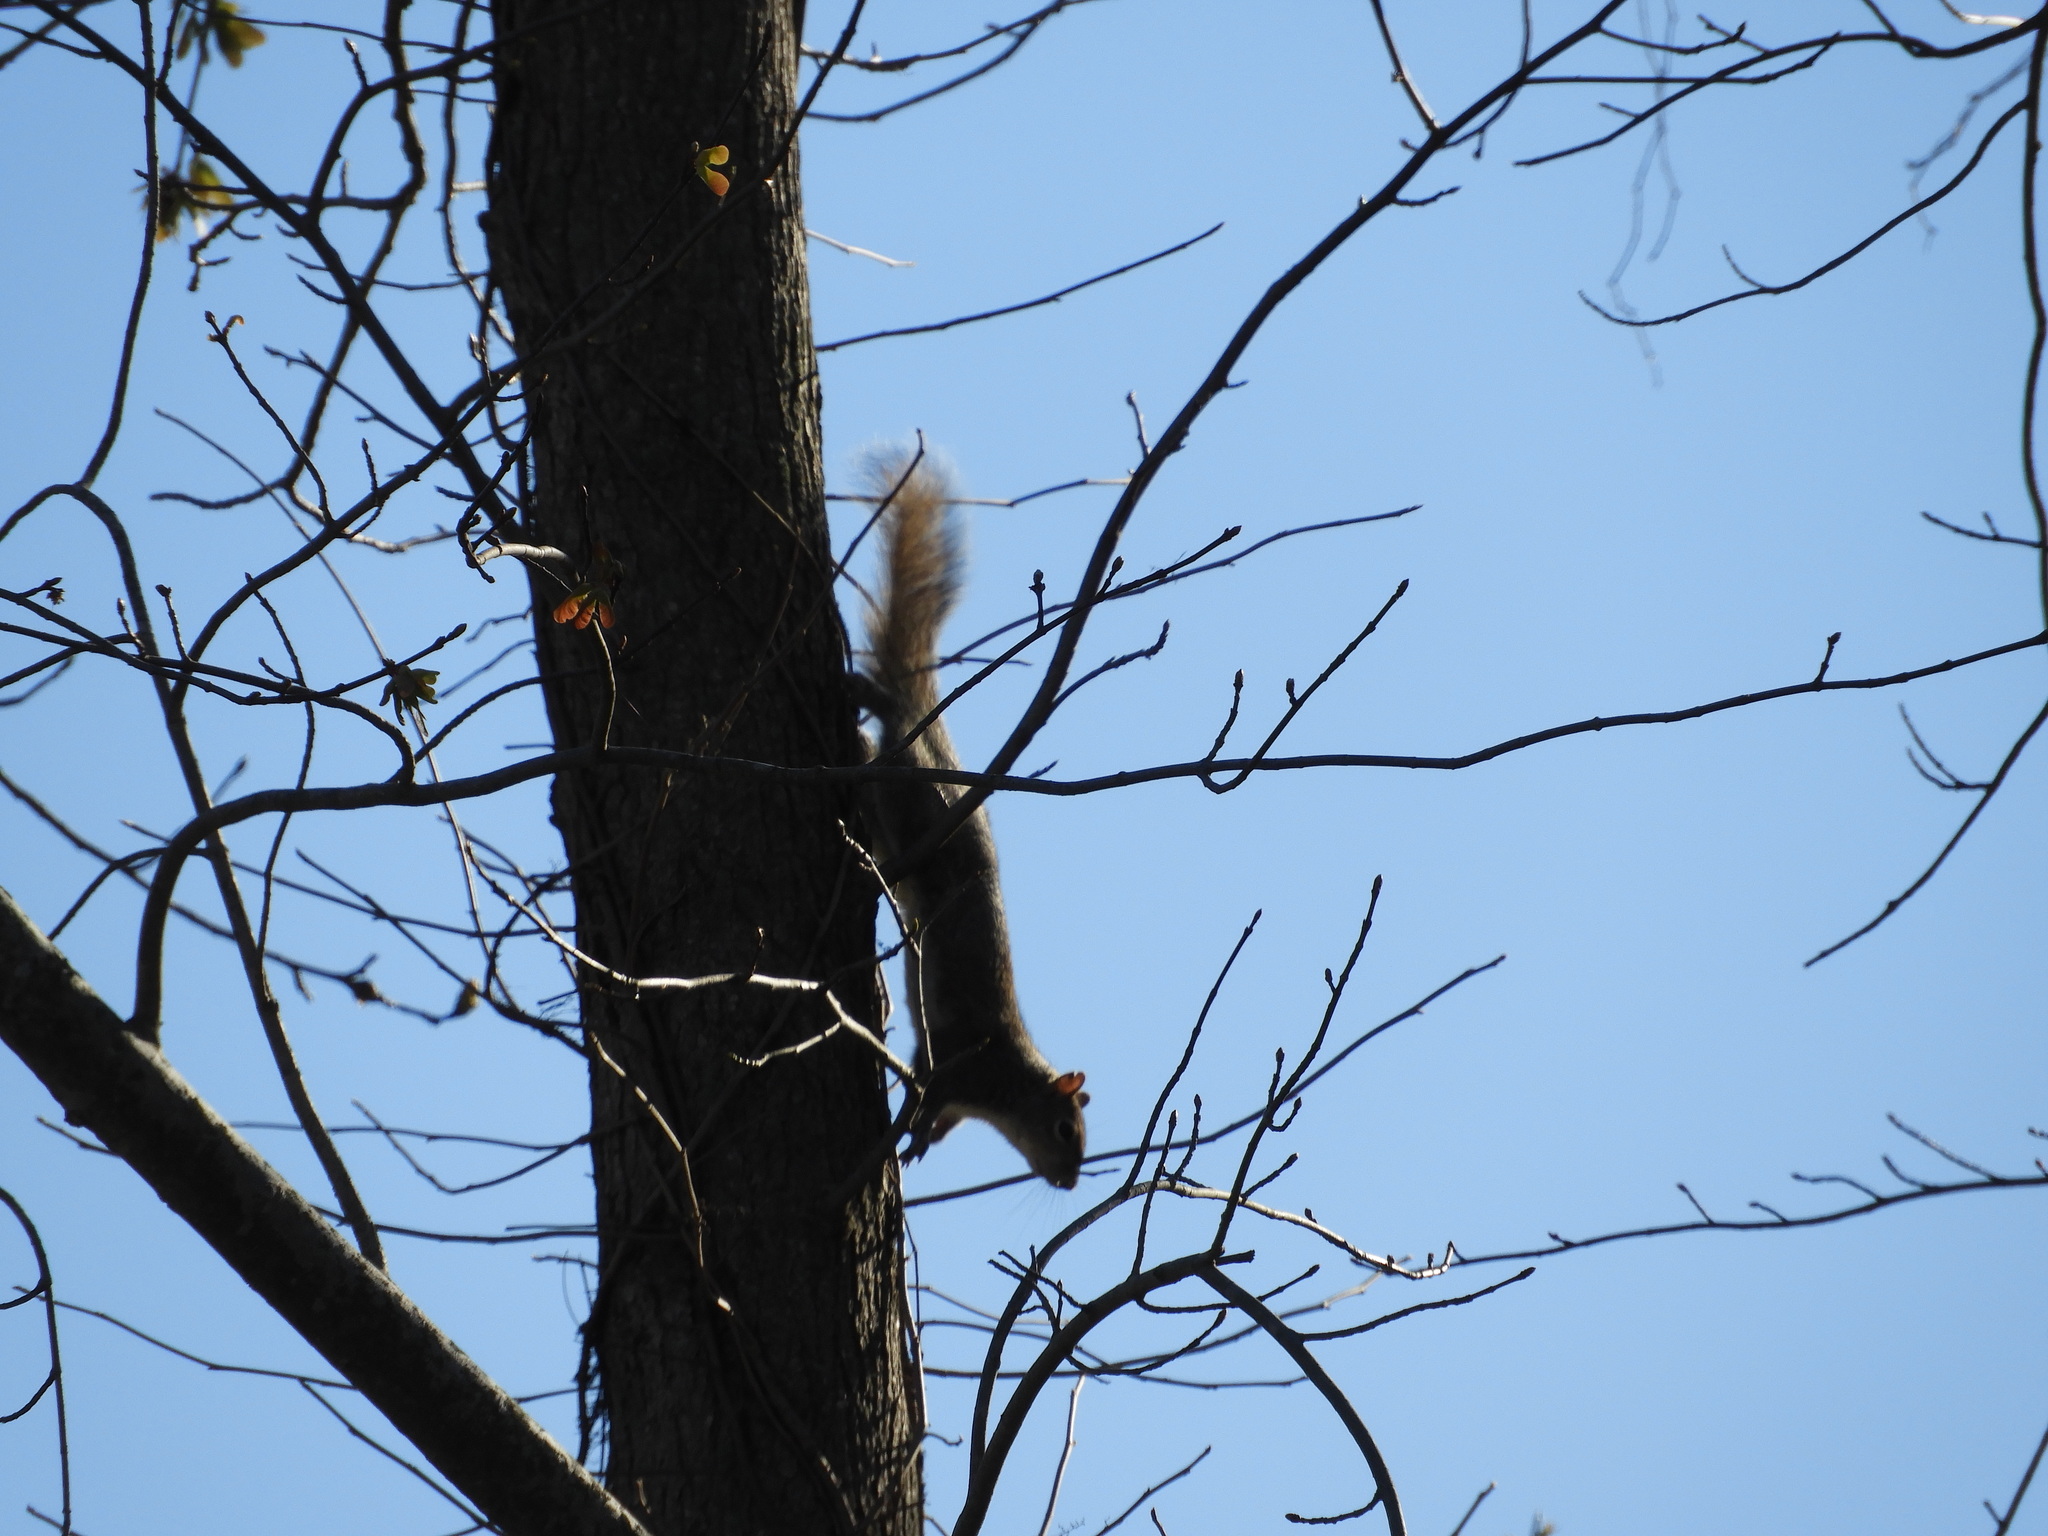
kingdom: Animalia
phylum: Chordata
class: Mammalia
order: Rodentia
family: Sciuridae
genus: Sciurus
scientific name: Sciurus carolinensis
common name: Eastern gray squirrel
